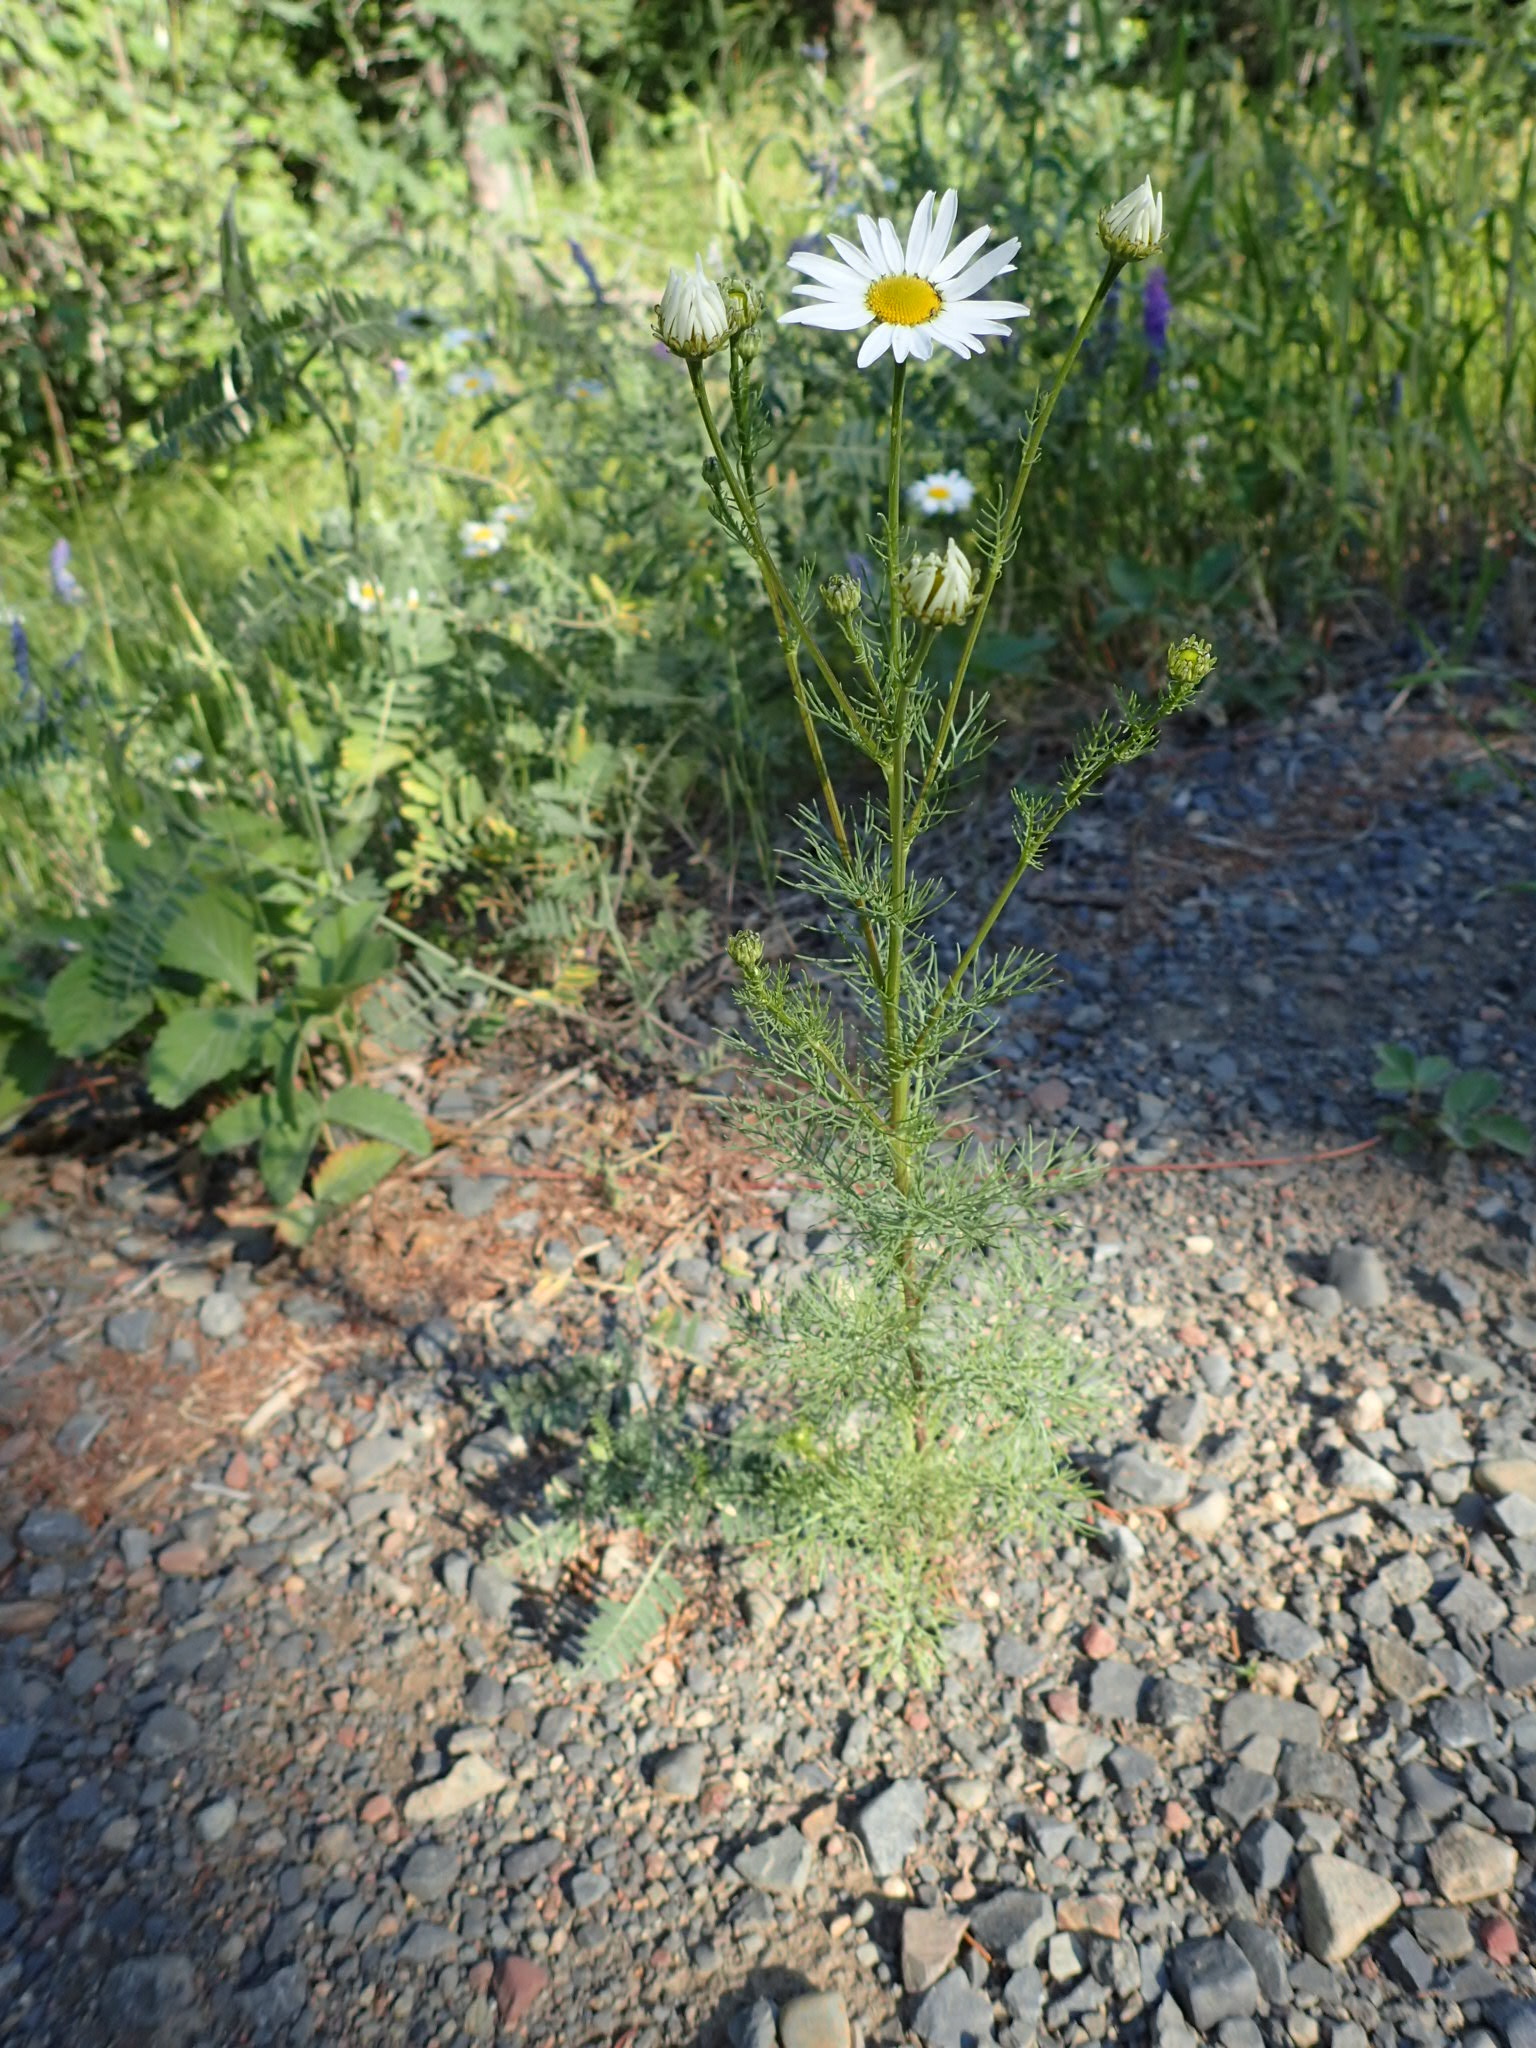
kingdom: Plantae
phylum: Tracheophyta
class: Magnoliopsida
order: Asterales
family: Asteraceae
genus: Tripleurospermum
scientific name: Tripleurospermum inodorum
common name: Scentless mayweed
